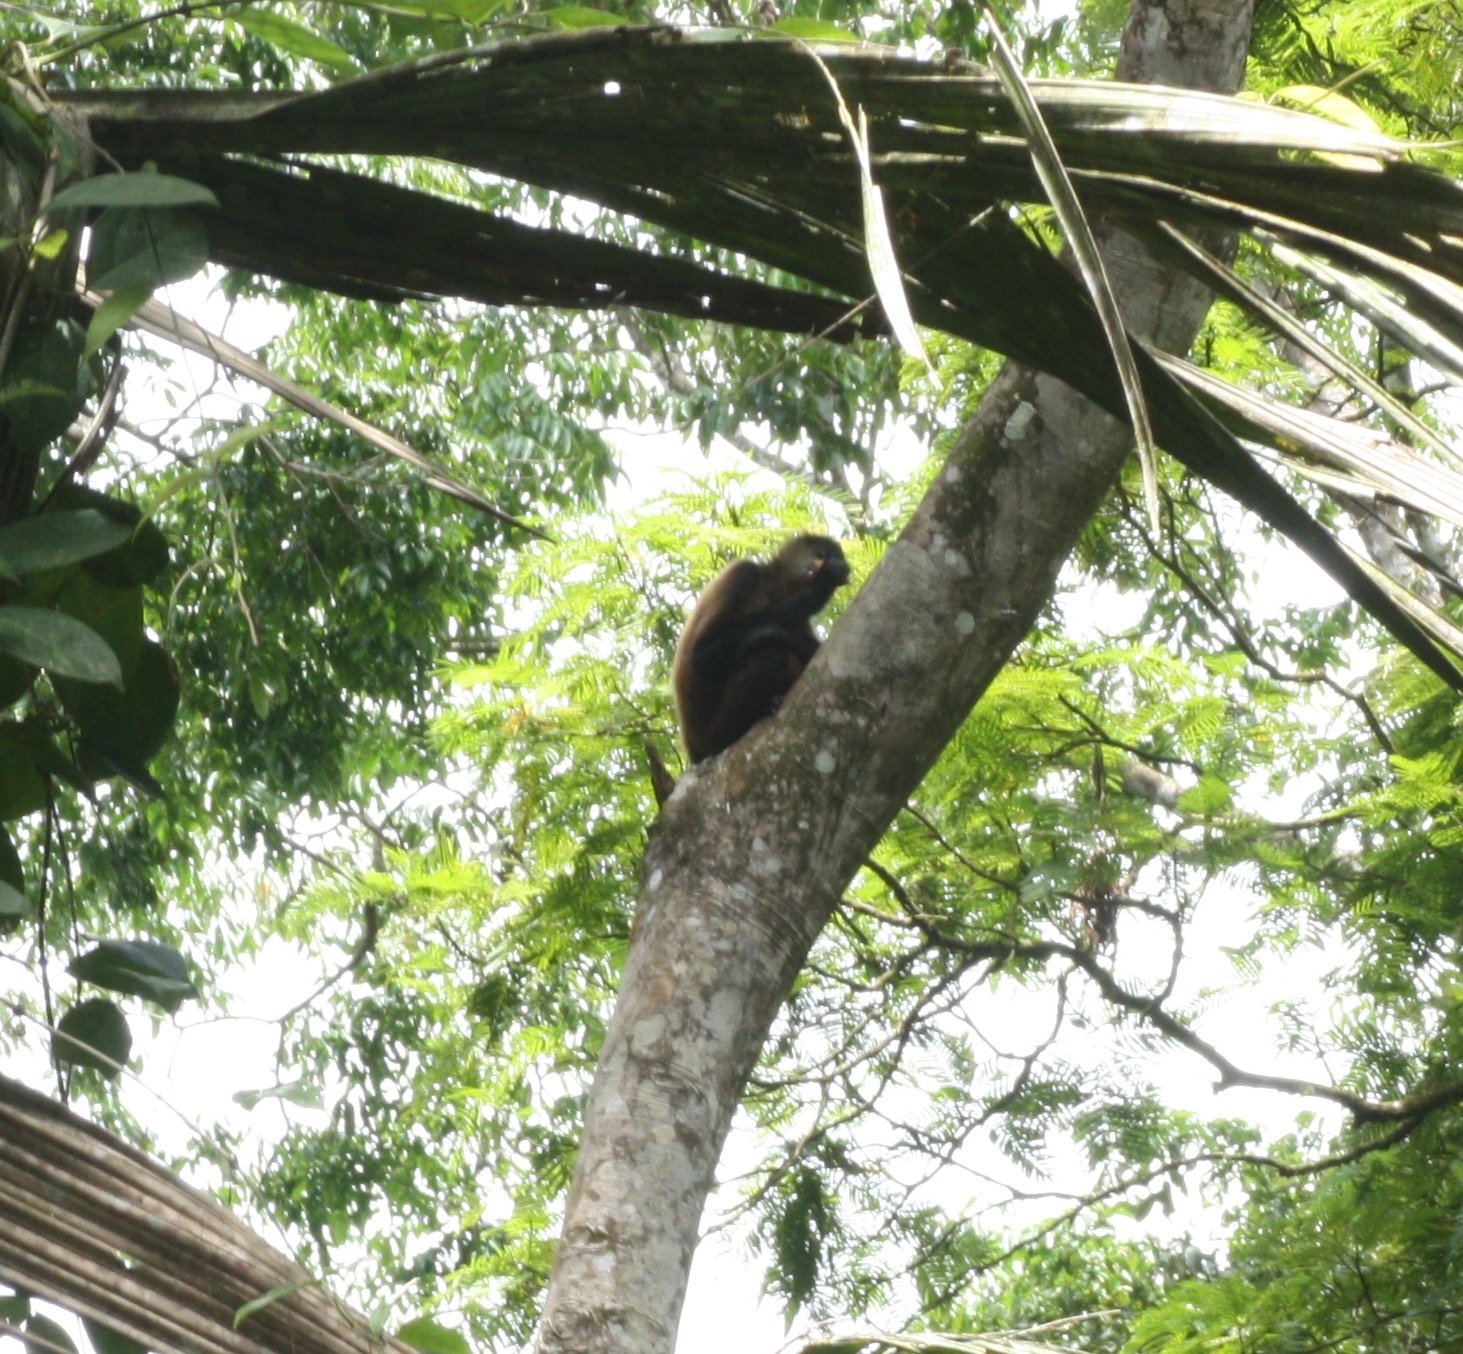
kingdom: Animalia
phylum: Chordata
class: Mammalia
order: Primates
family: Atelidae
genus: Ateles
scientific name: Ateles geoffroyi
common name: Black-handed spider monkey
